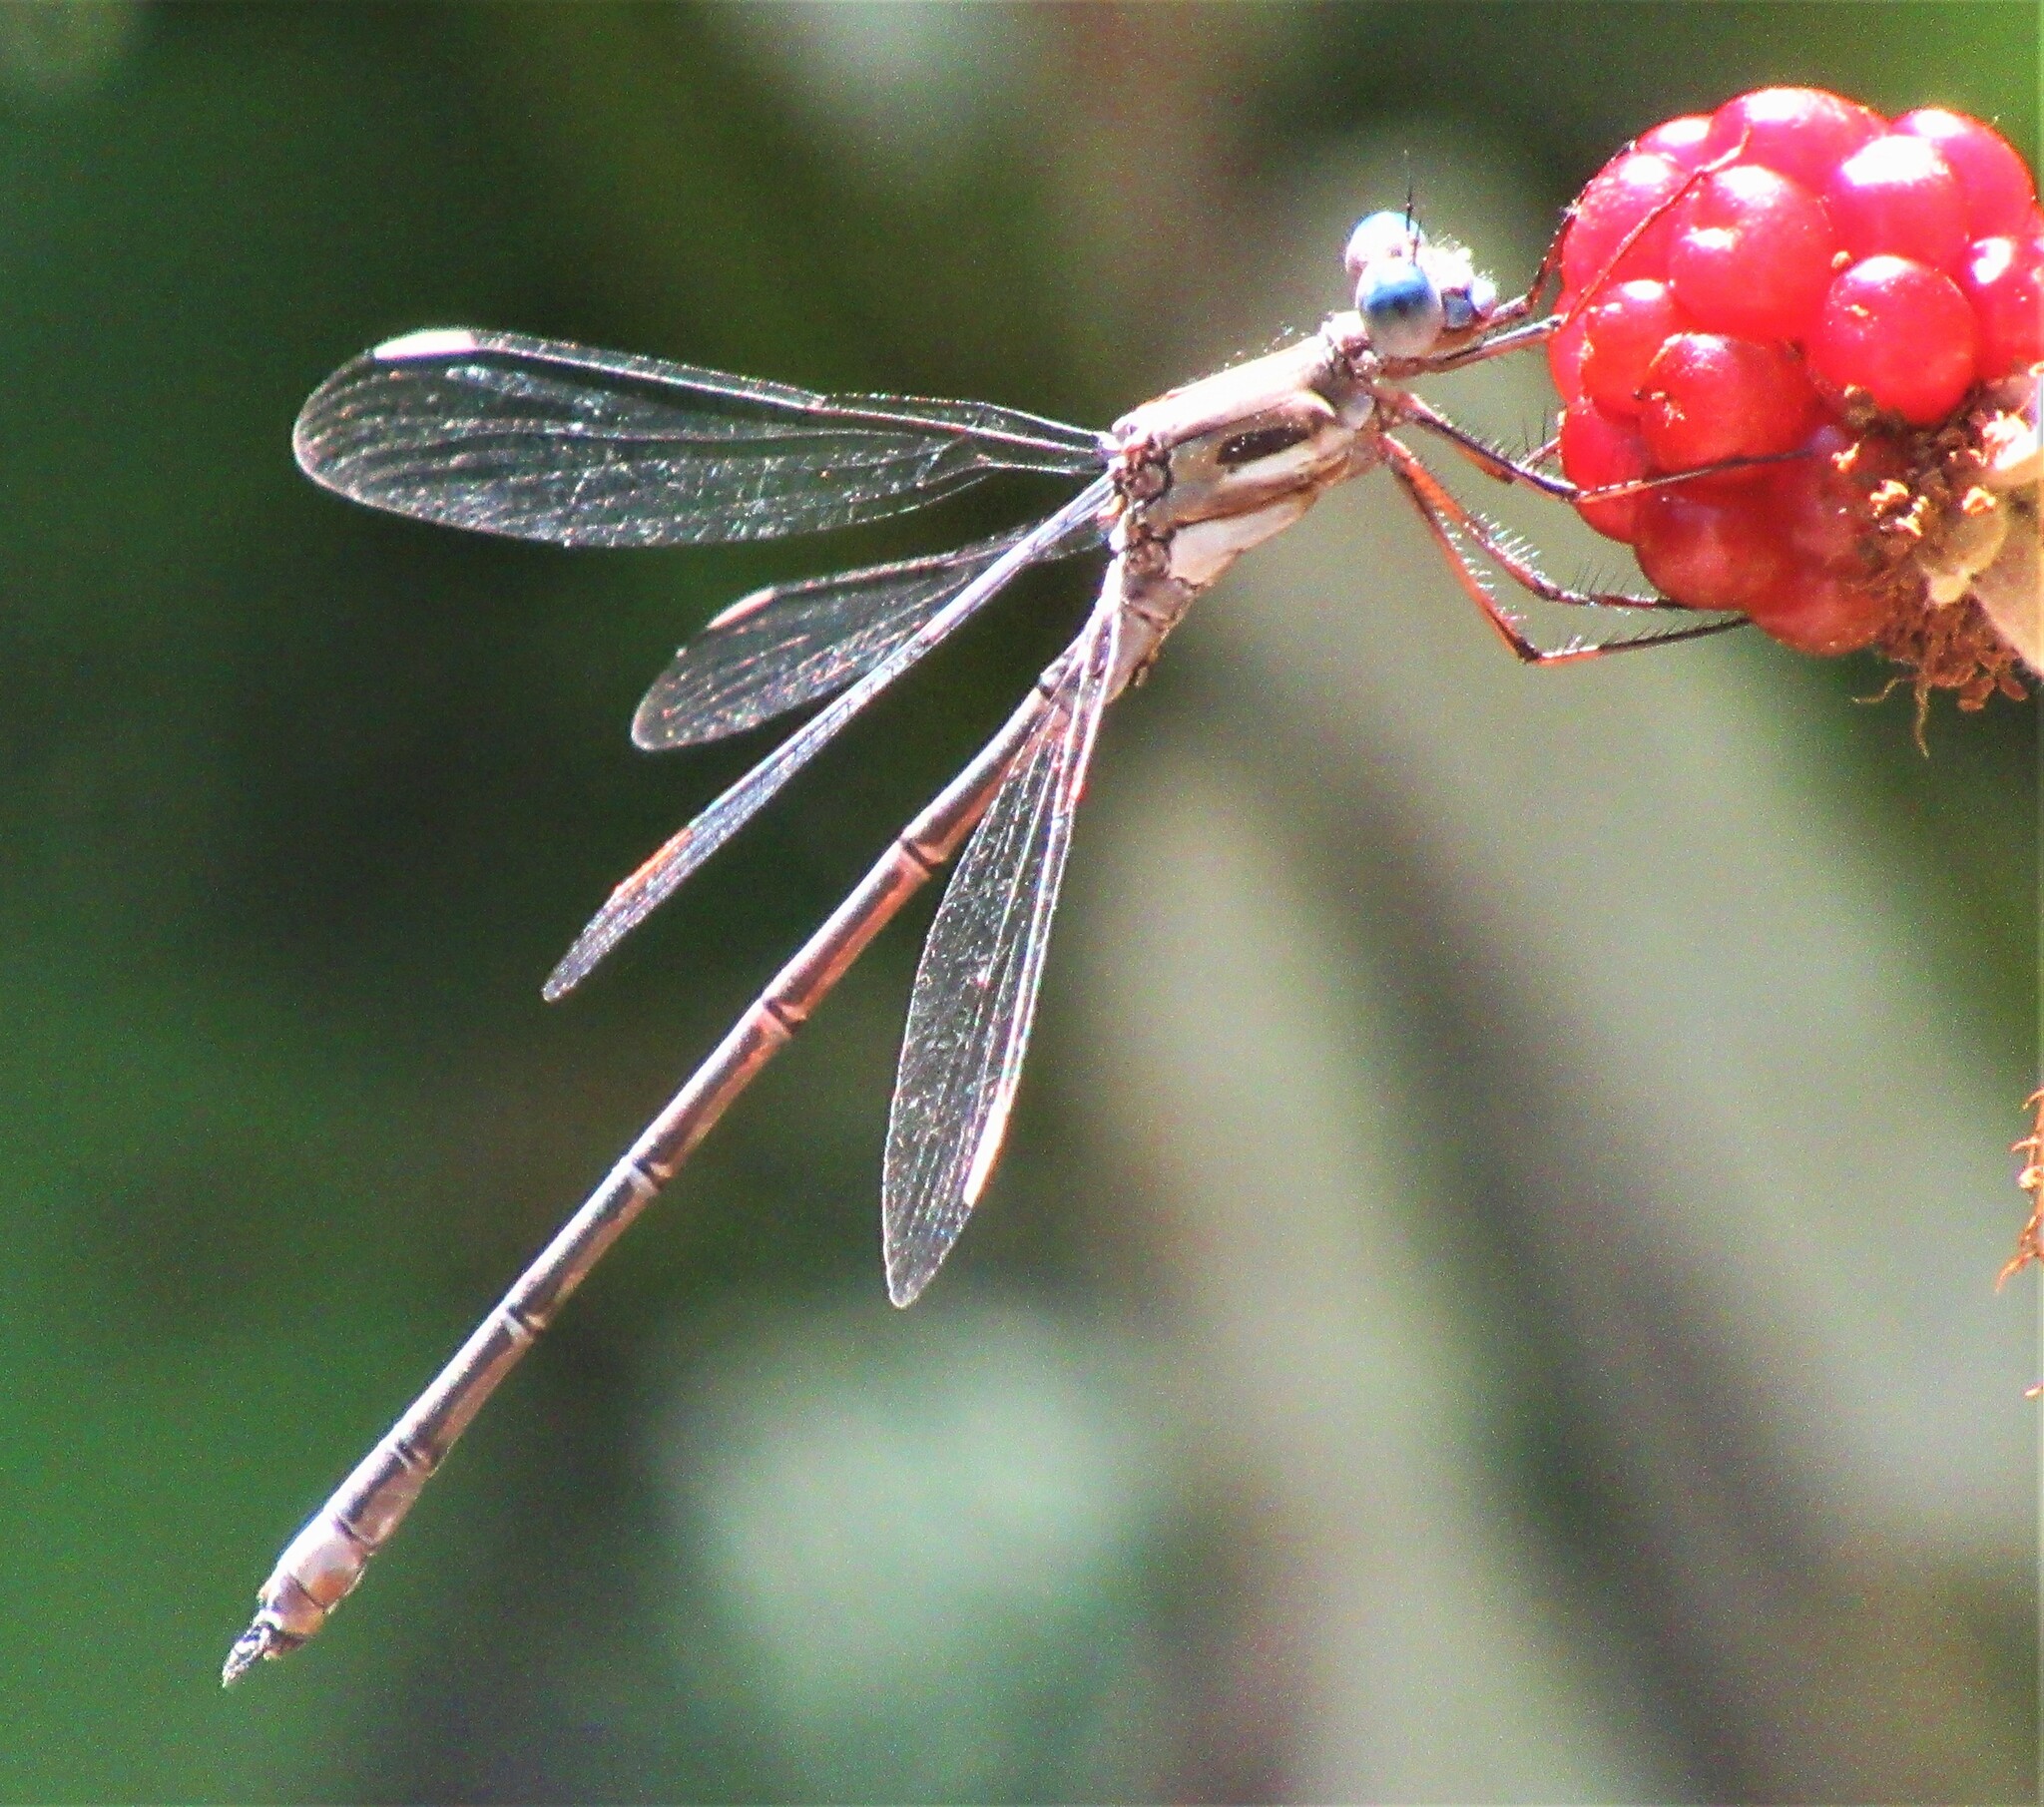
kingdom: Animalia
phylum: Arthropoda
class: Insecta
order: Odonata
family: Lestidae
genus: Archilestes
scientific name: Archilestes californicus
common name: California spreadwing
